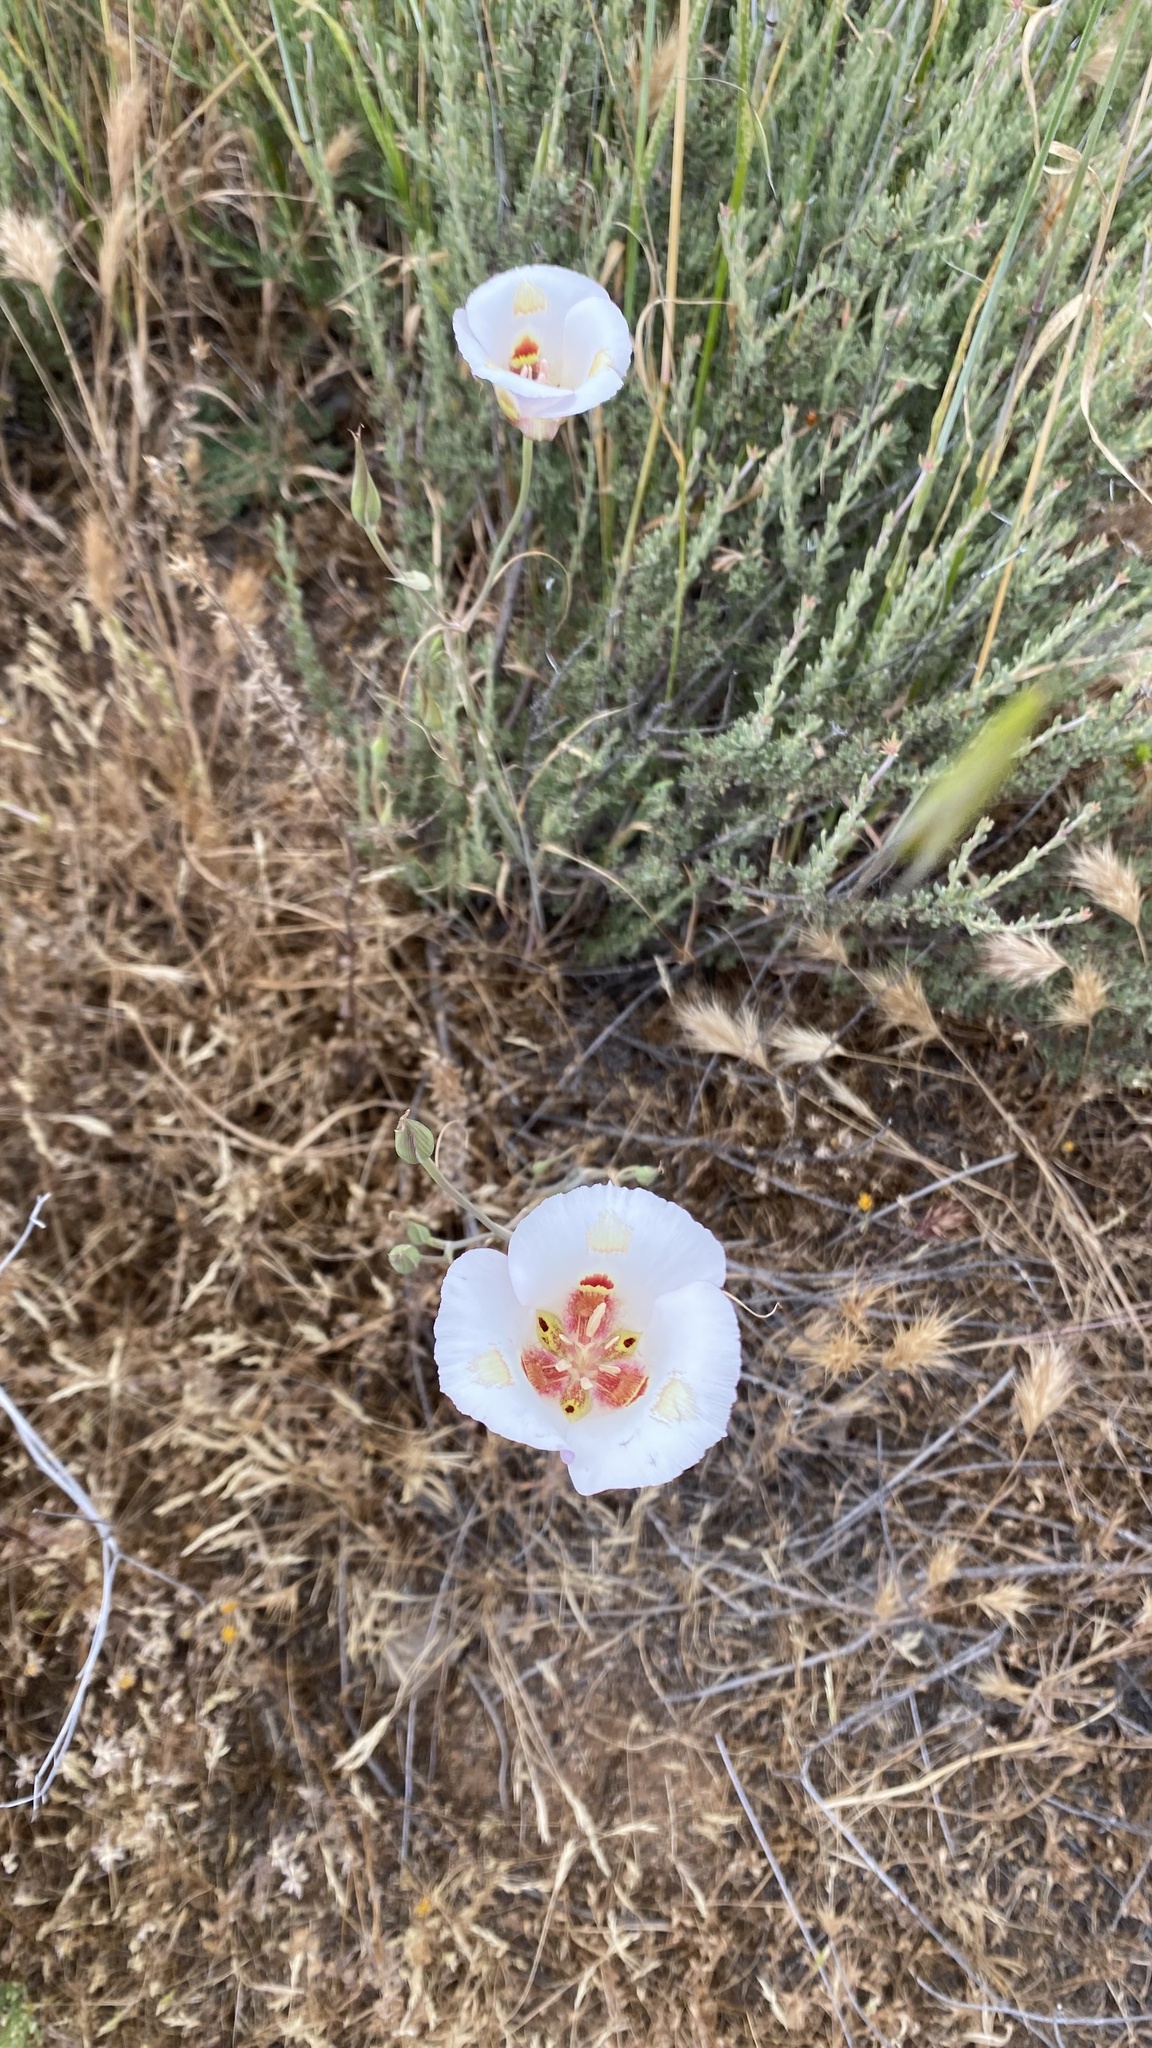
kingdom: Plantae
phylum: Tracheophyta
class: Liliopsida
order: Liliales
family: Liliaceae
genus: Calochortus
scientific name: Calochortus venustus
